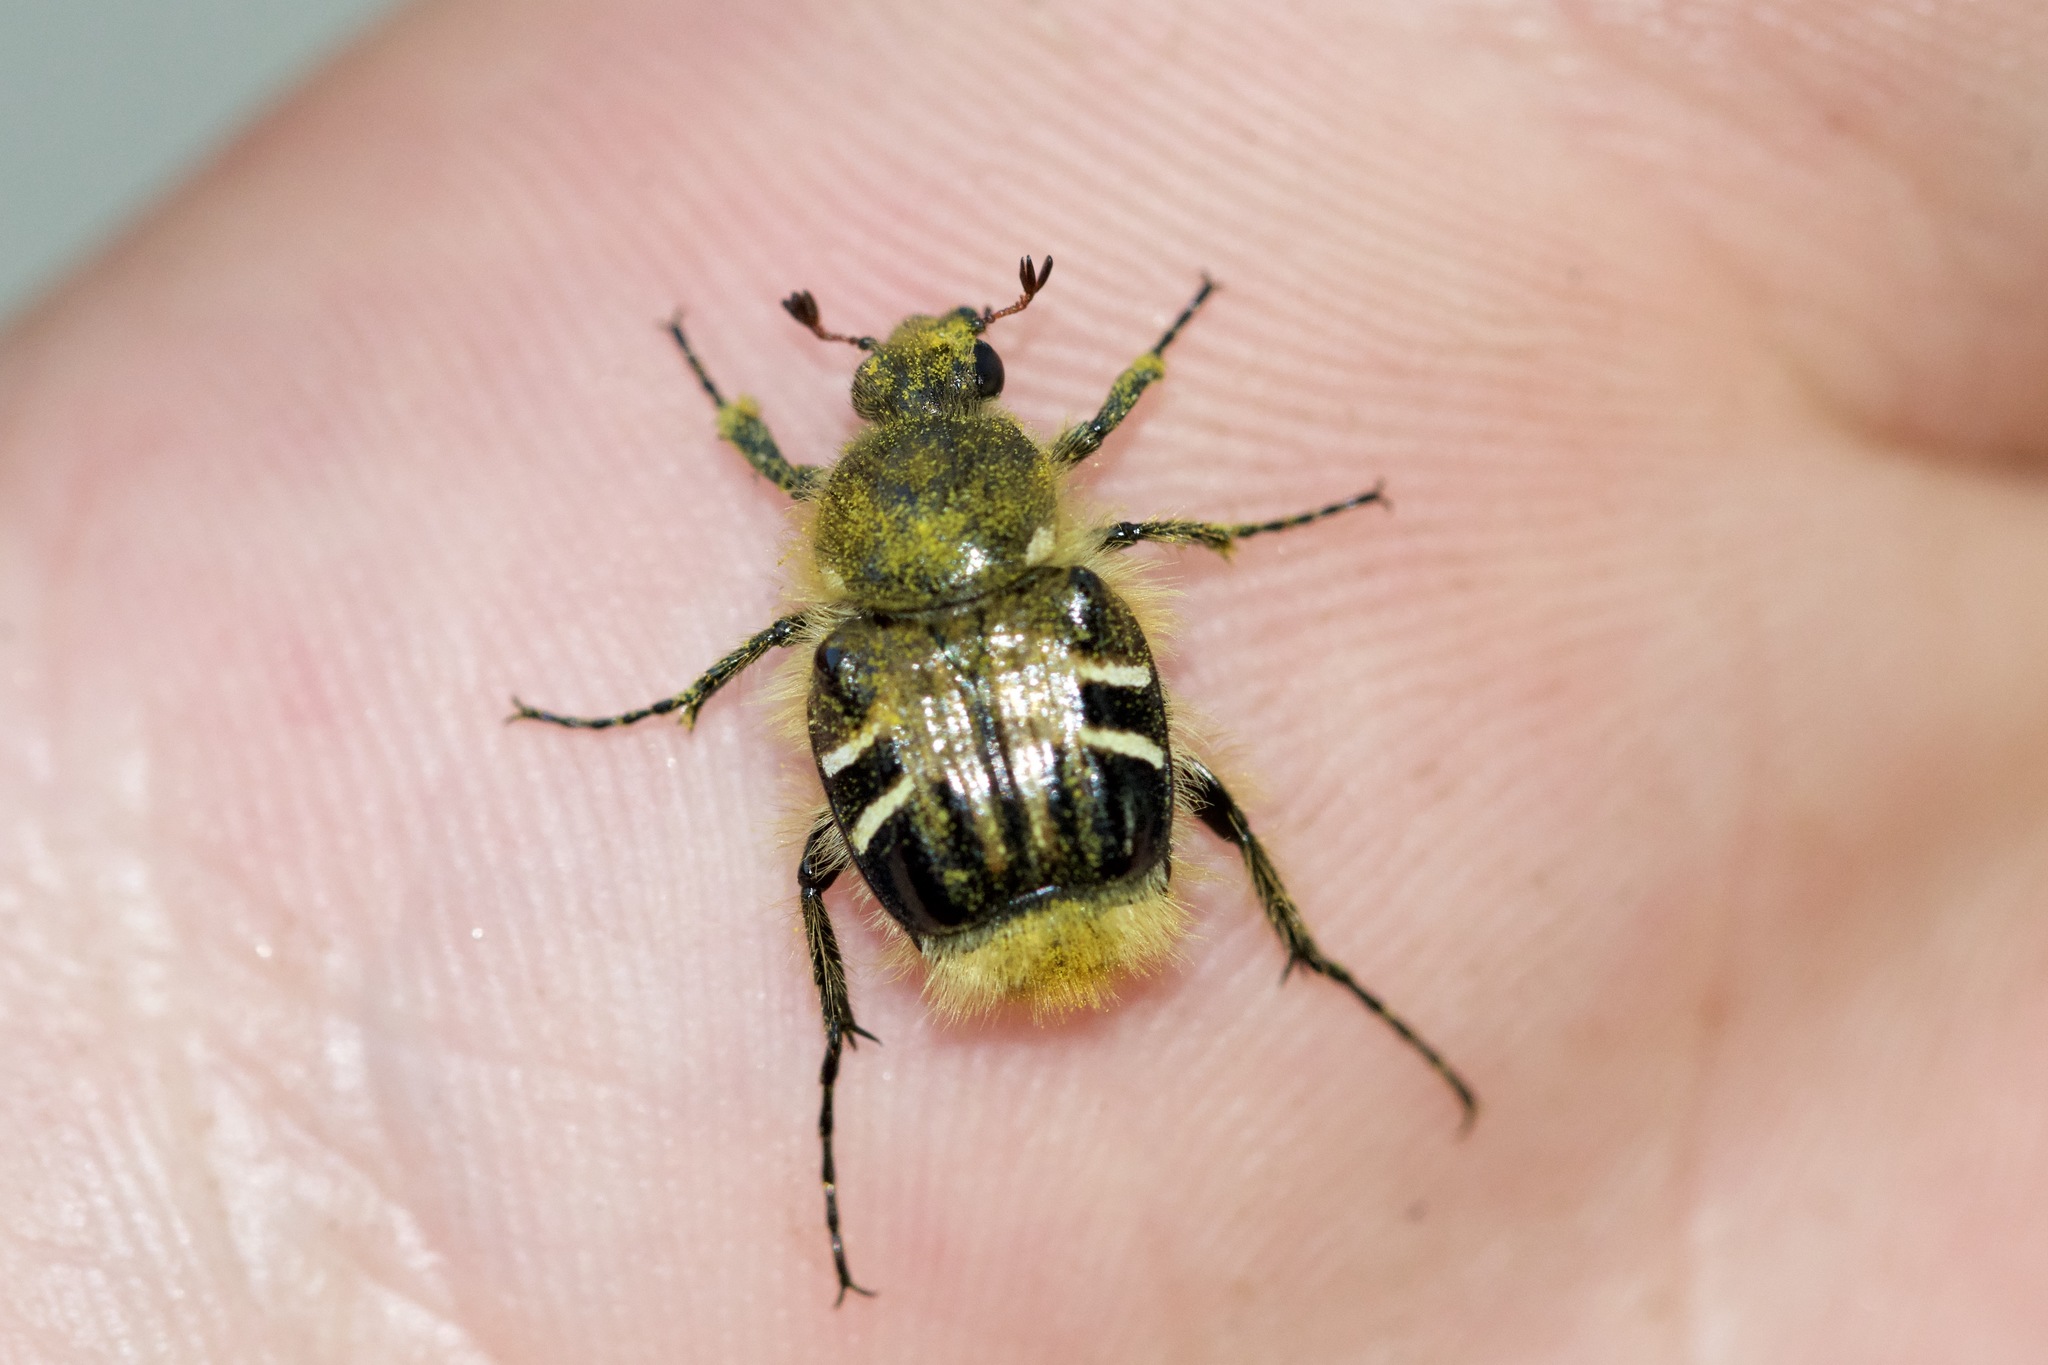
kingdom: Animalia
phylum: Arthropoda
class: Insecta
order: Coleoptera
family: Scarabaeidae
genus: Trichiotinus
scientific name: Trichiotinus assimilis
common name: Bee-mimic beetle
